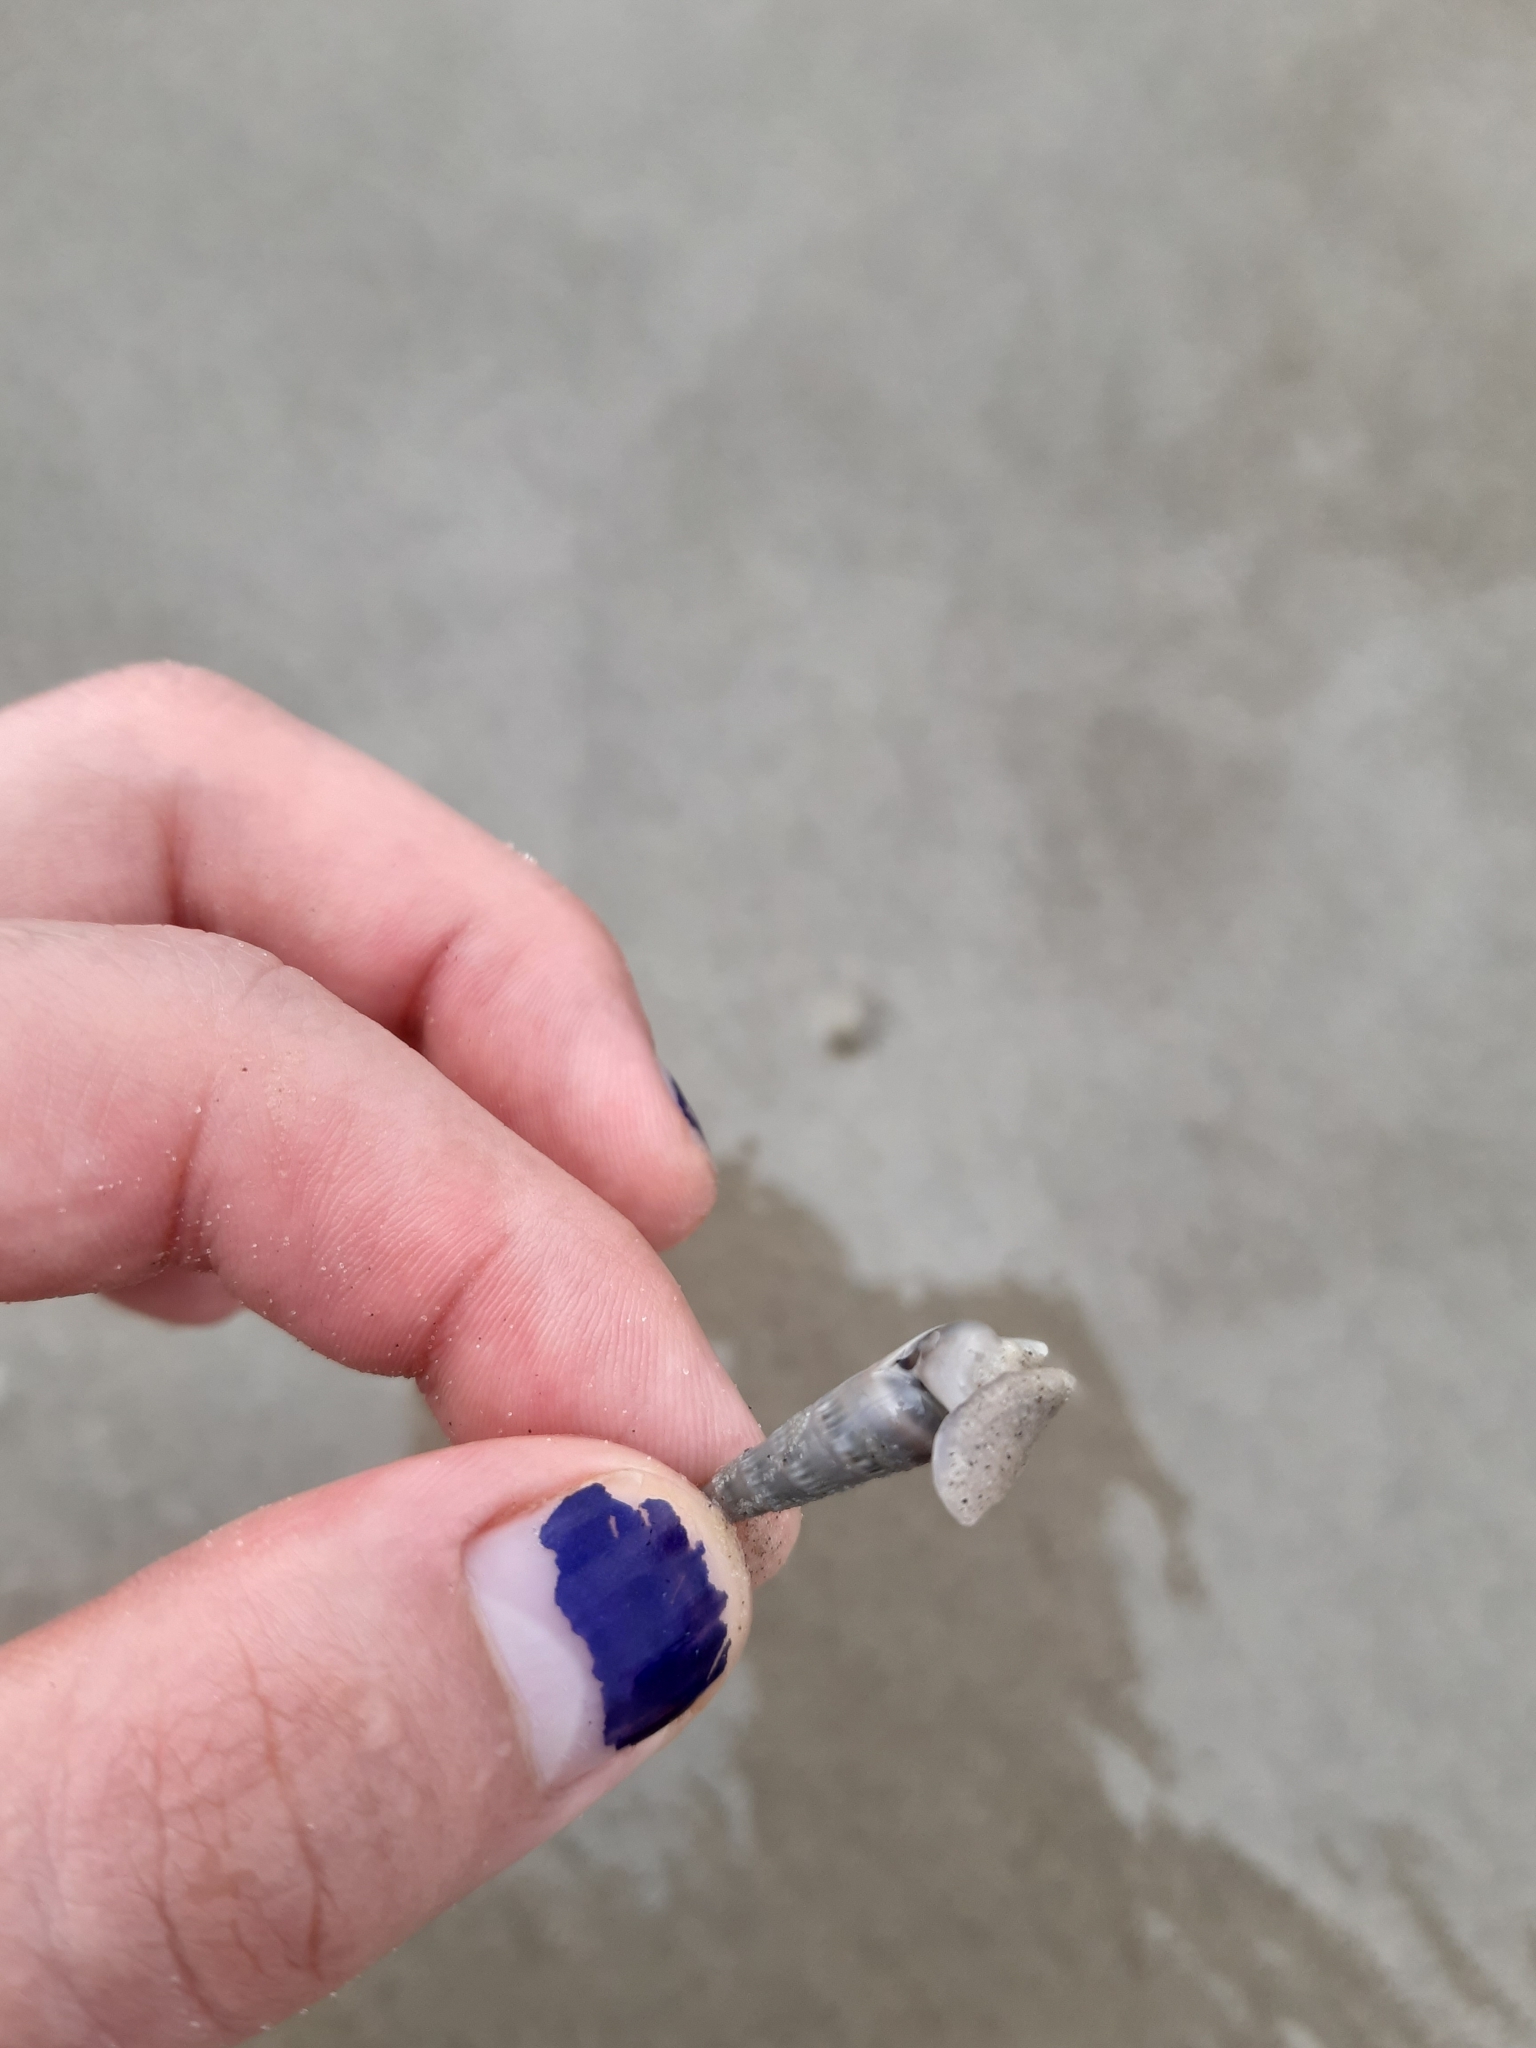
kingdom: Animalia
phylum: Mollusca
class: Gastropoda
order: Neogastropoda
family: Terebridae
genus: Hastula
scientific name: Hastula cinerea
